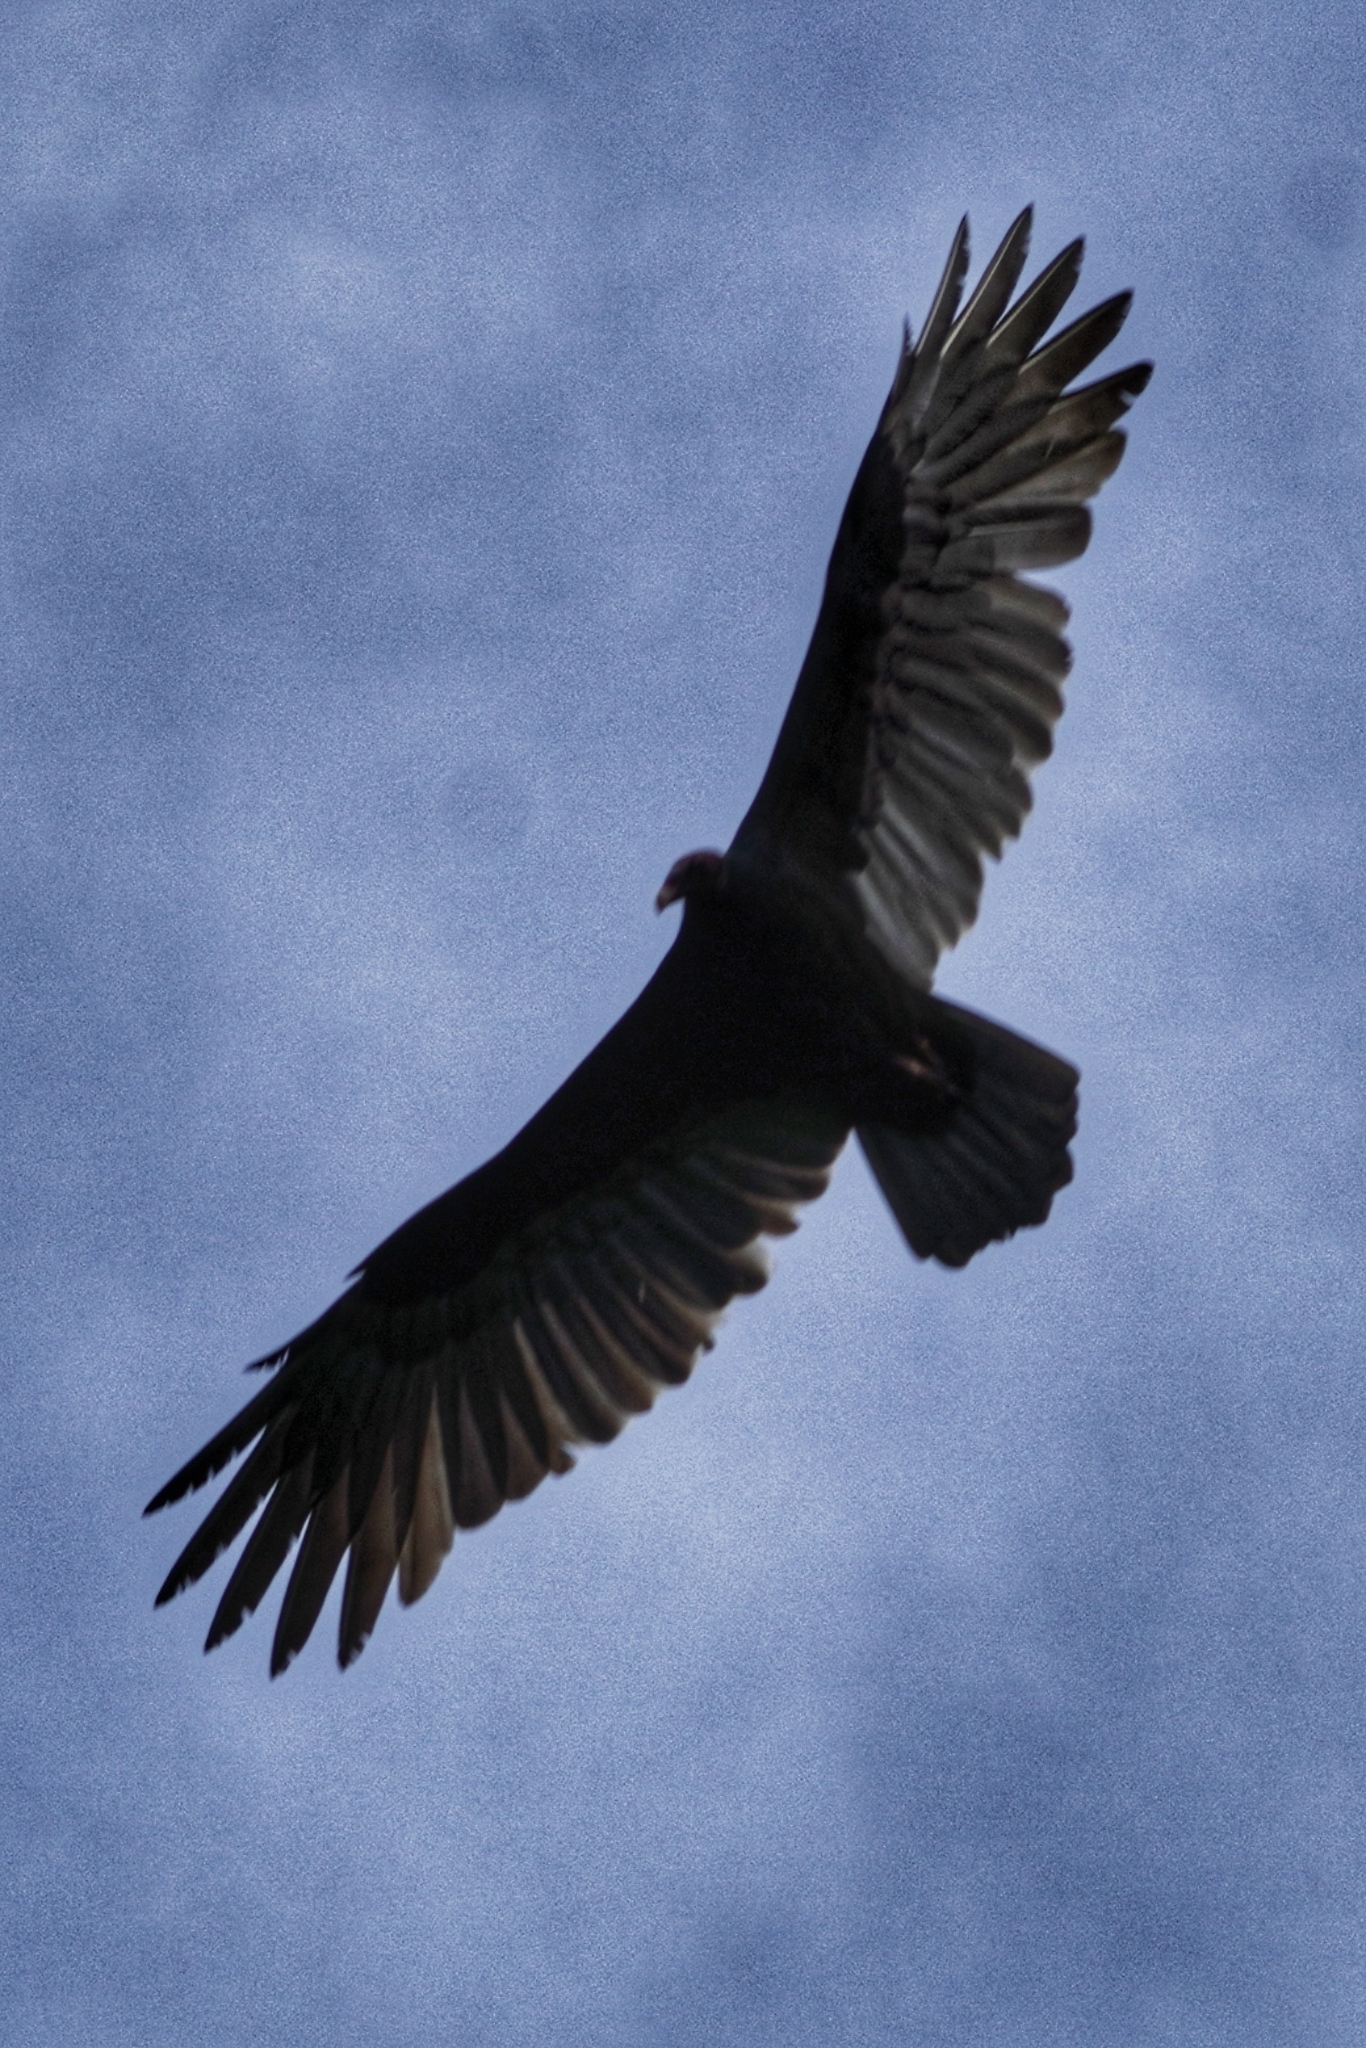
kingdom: Animalia
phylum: Chordata
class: Aves
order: Accipitriformes
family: Cathartidae
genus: Cathartes
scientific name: Cathartes aura
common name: Turkey vulture
